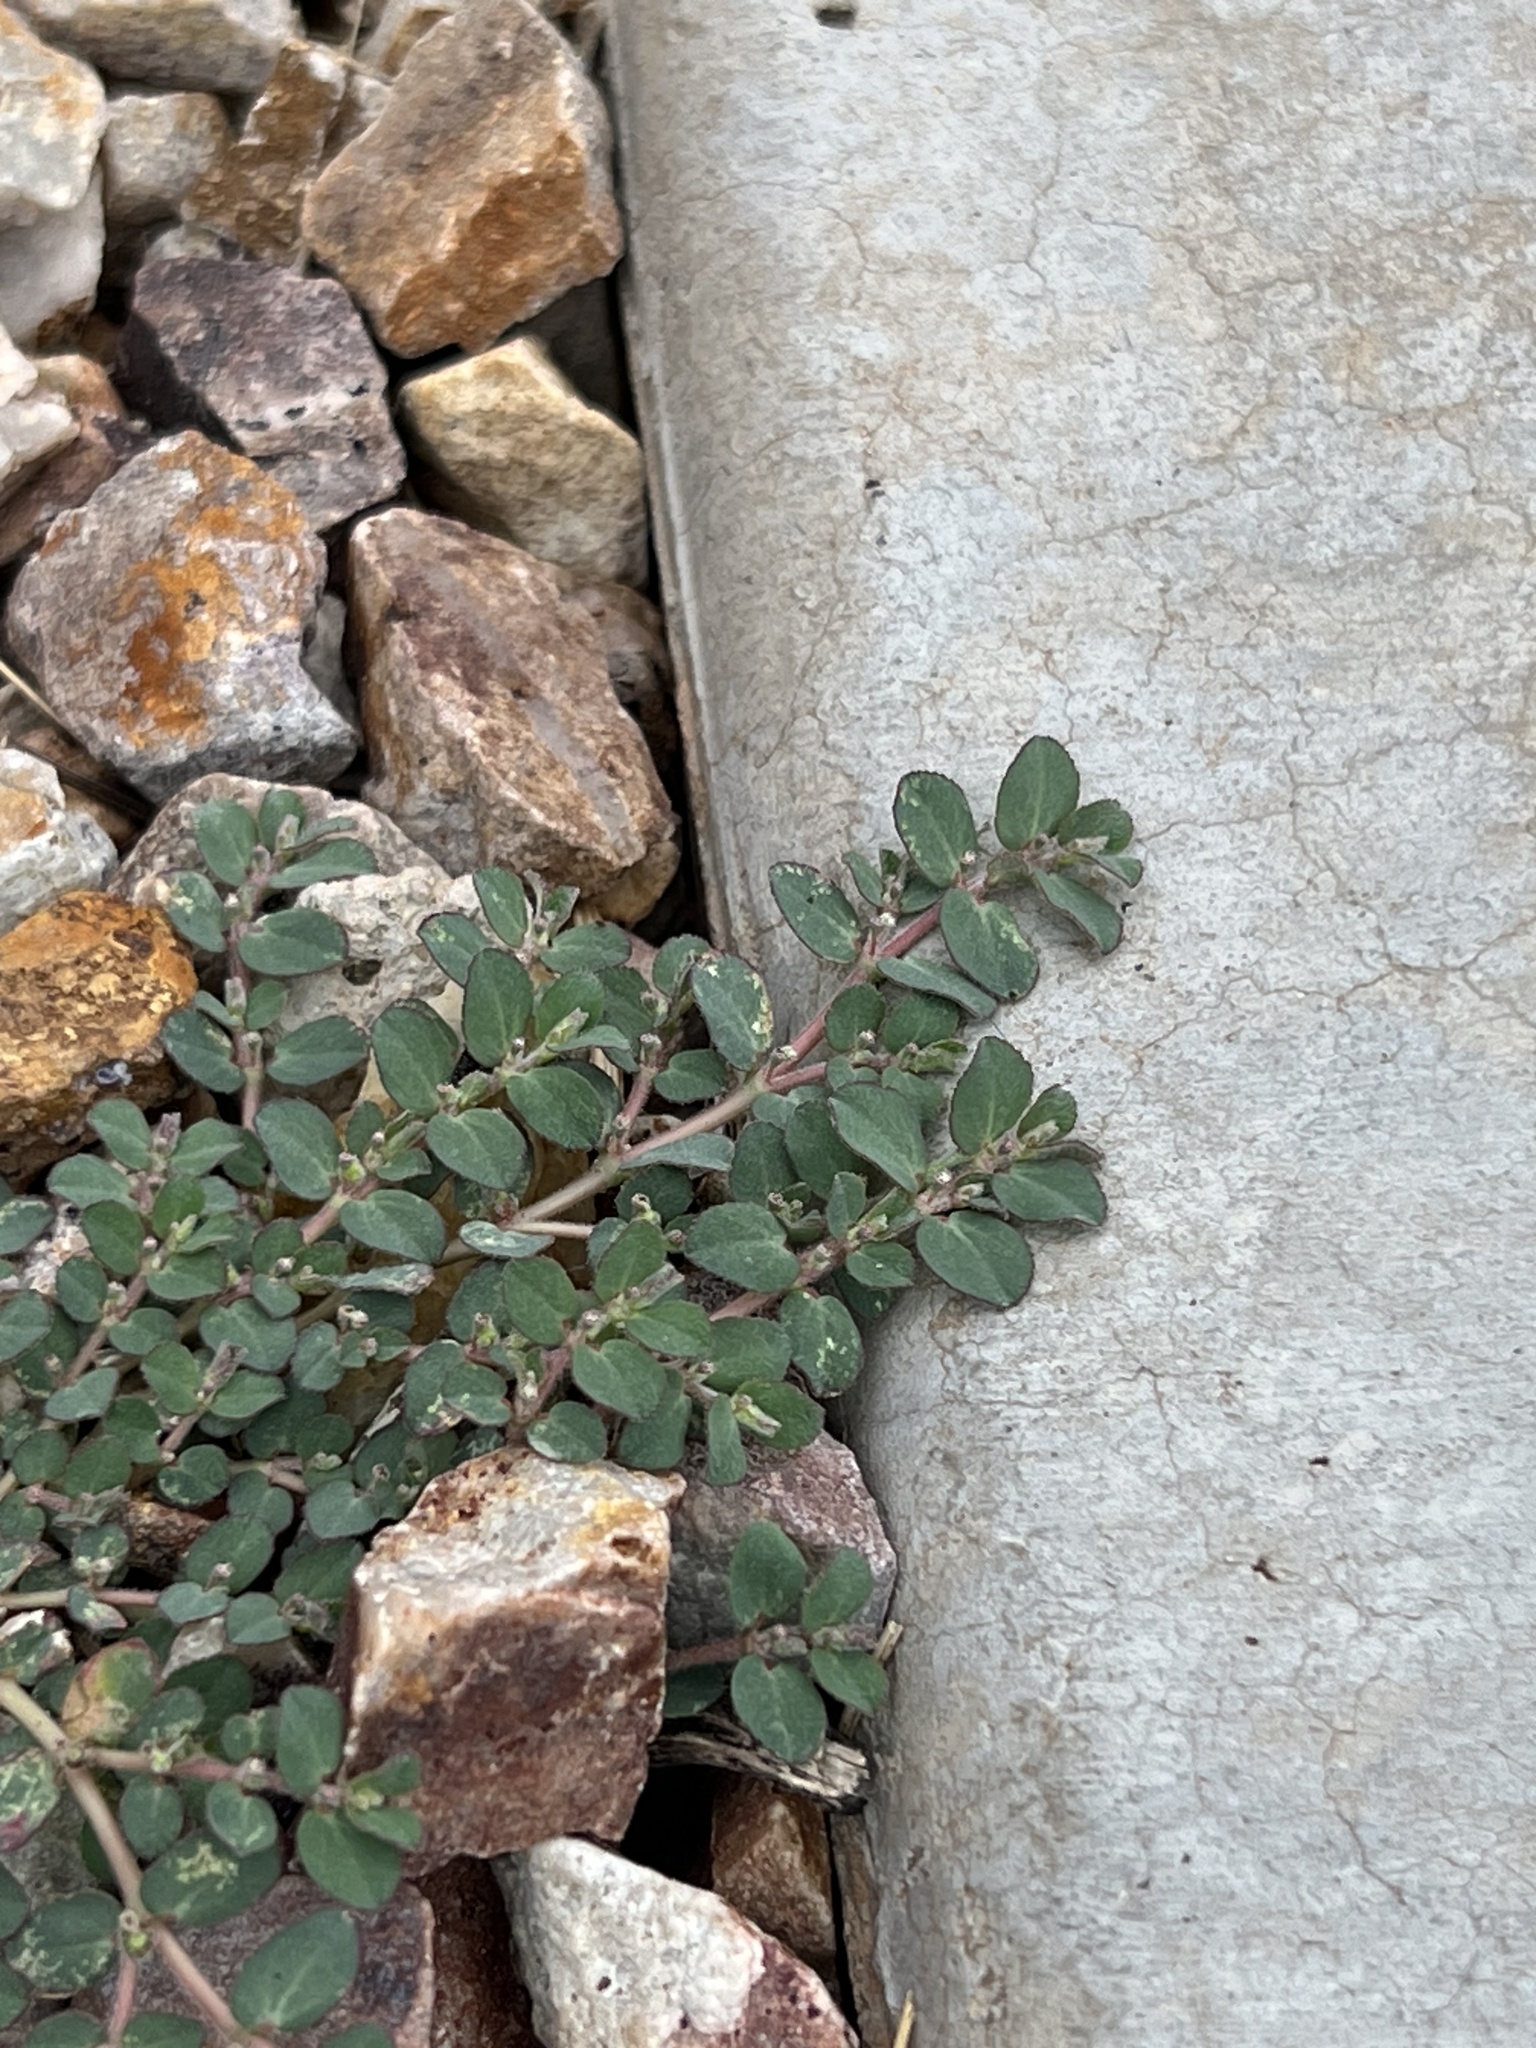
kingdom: Plantae
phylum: Tracheophyta
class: Magnoliopsida
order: Malpighiales
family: Euphorbiaceae
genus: Euphorbia
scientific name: Euphorbia prostrata
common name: Prostrate sandmat
